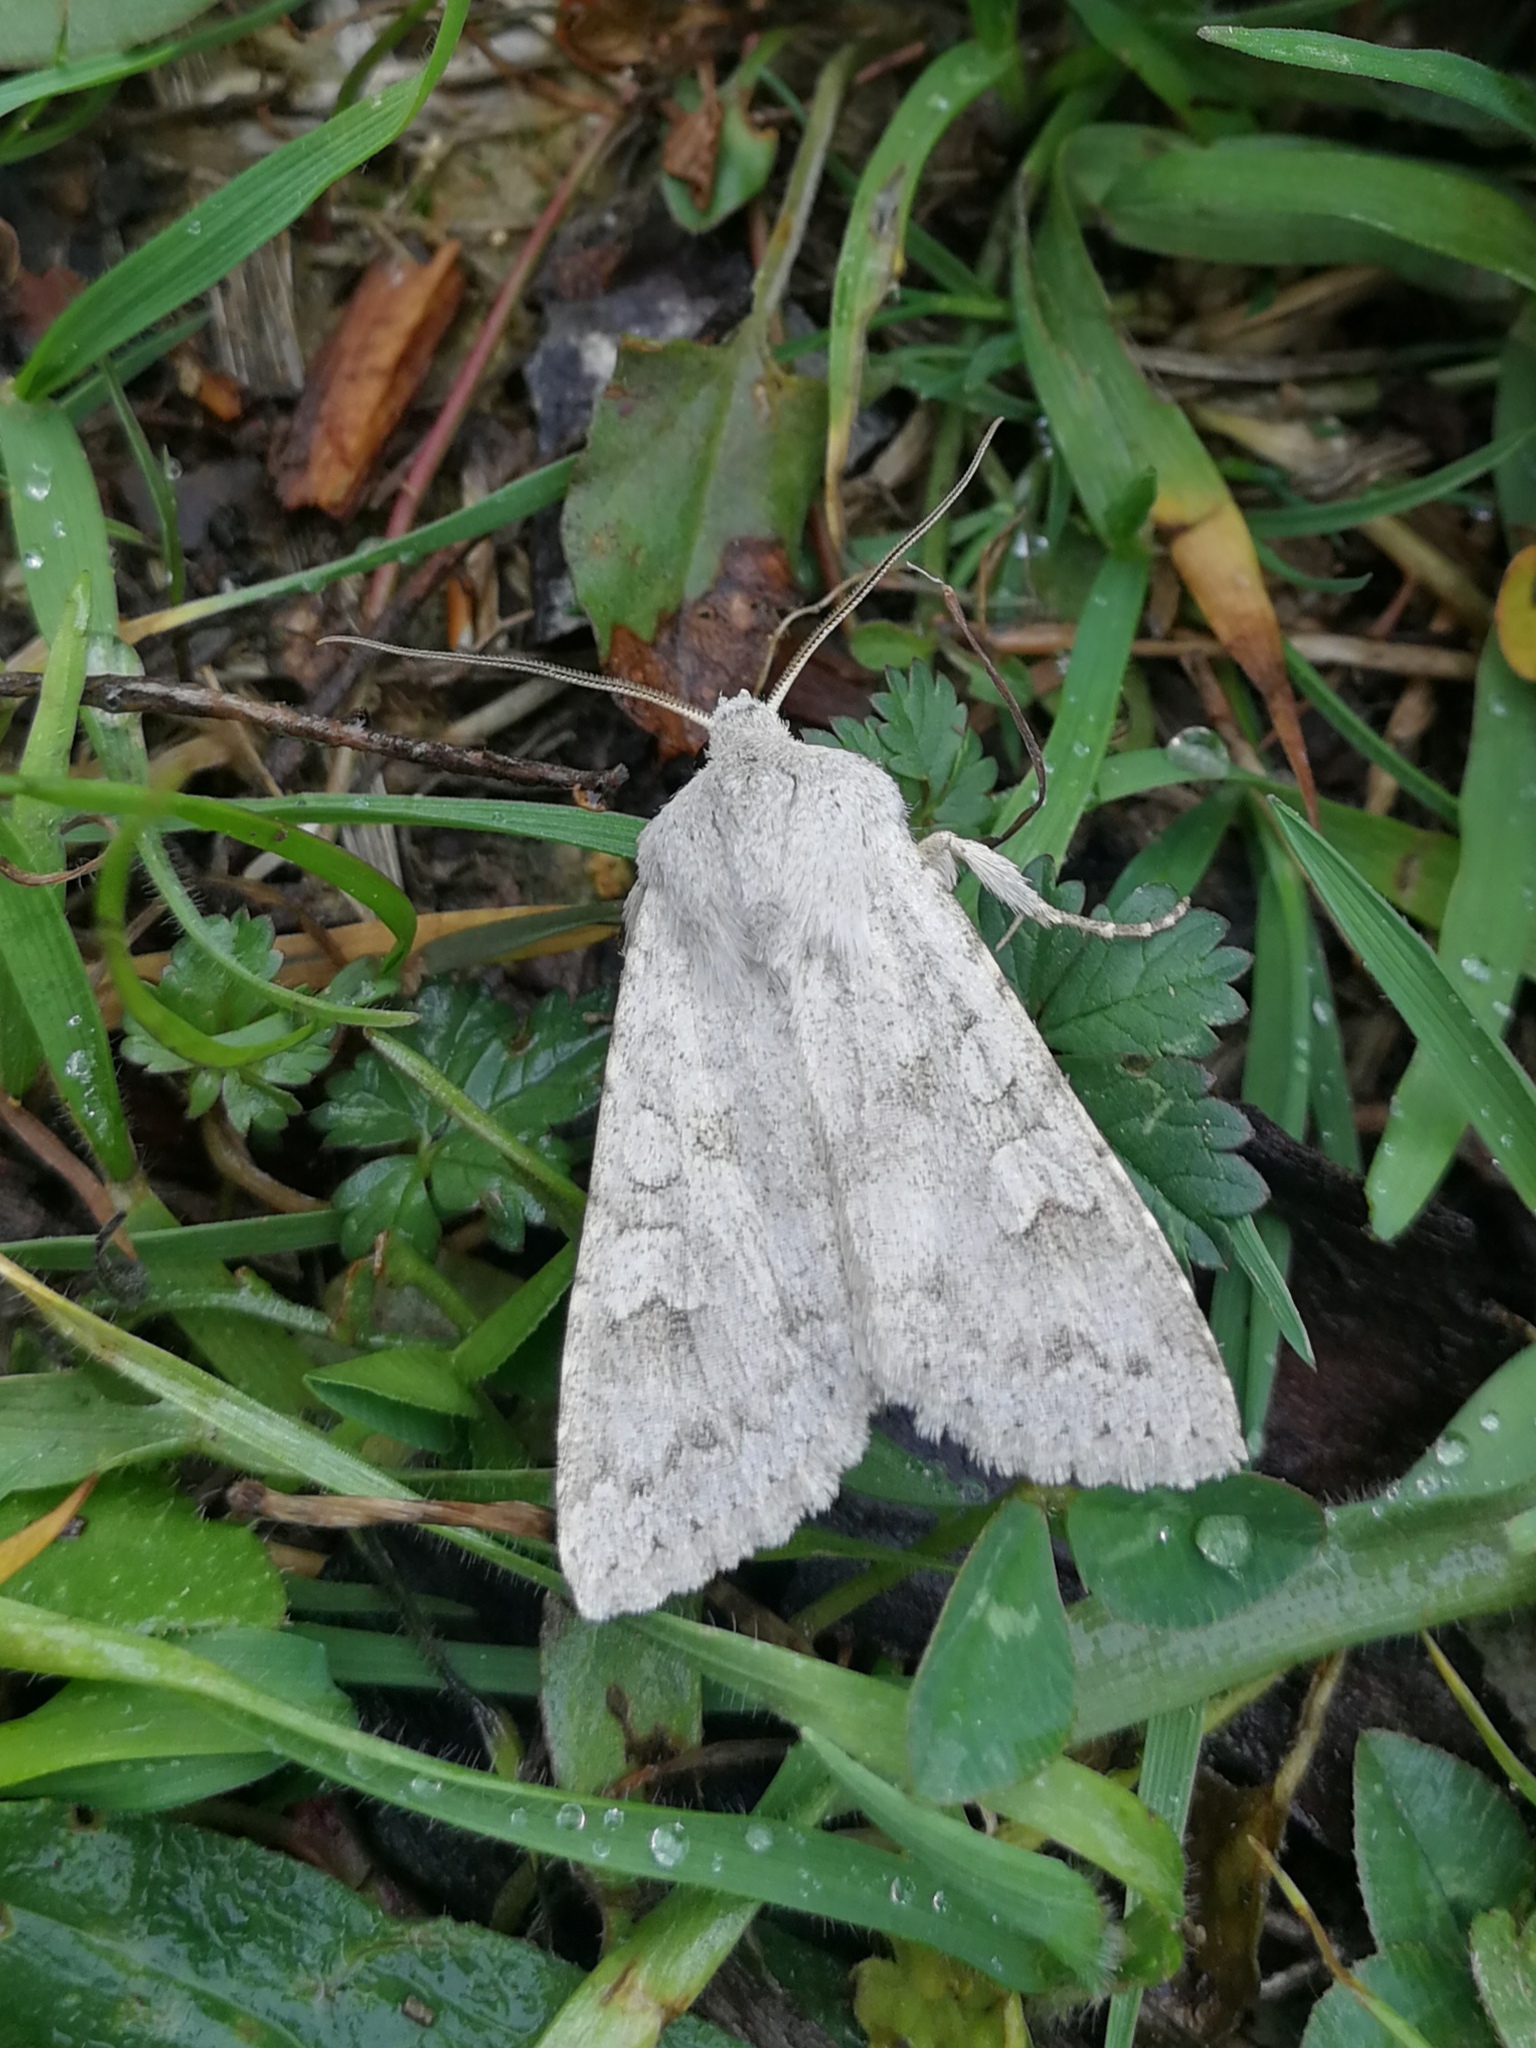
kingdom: Animalia
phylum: Arthropoda
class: Insecta
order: Lepidoptera
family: Noctuidae
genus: Ammoconia
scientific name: Ammoconia senex
